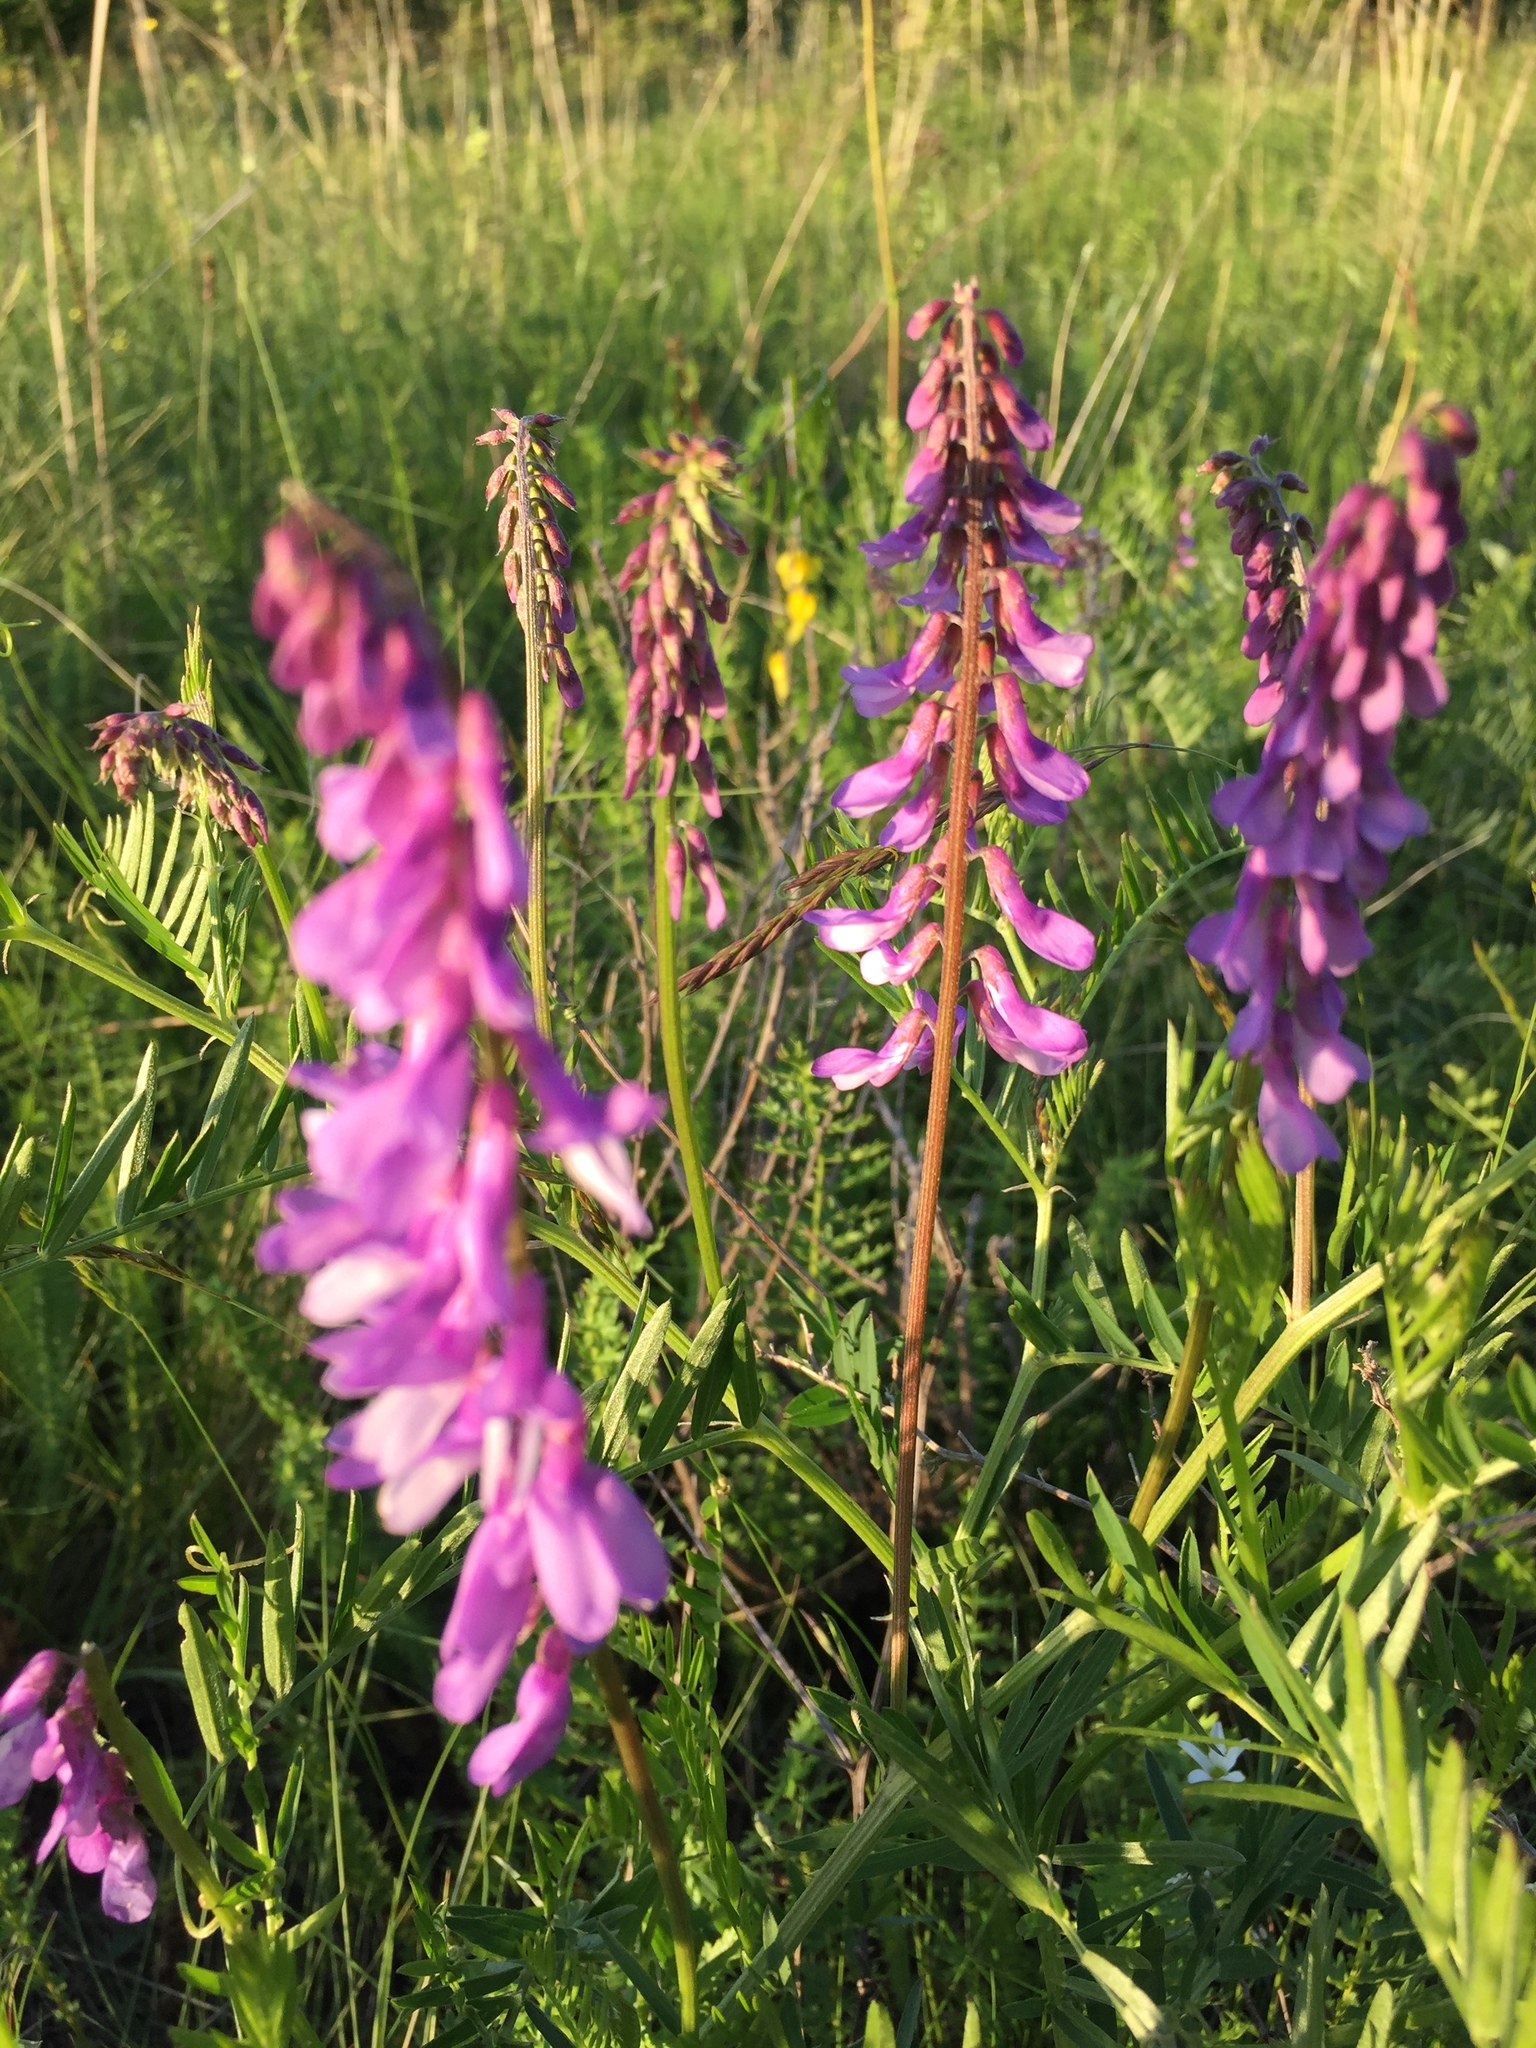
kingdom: Plantae
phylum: Tracheophyta
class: Magnoliopsida
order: Fabales
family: Fabaceae
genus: Vicia
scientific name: Vicia tenuifolia
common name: Fine-leaved vetch
